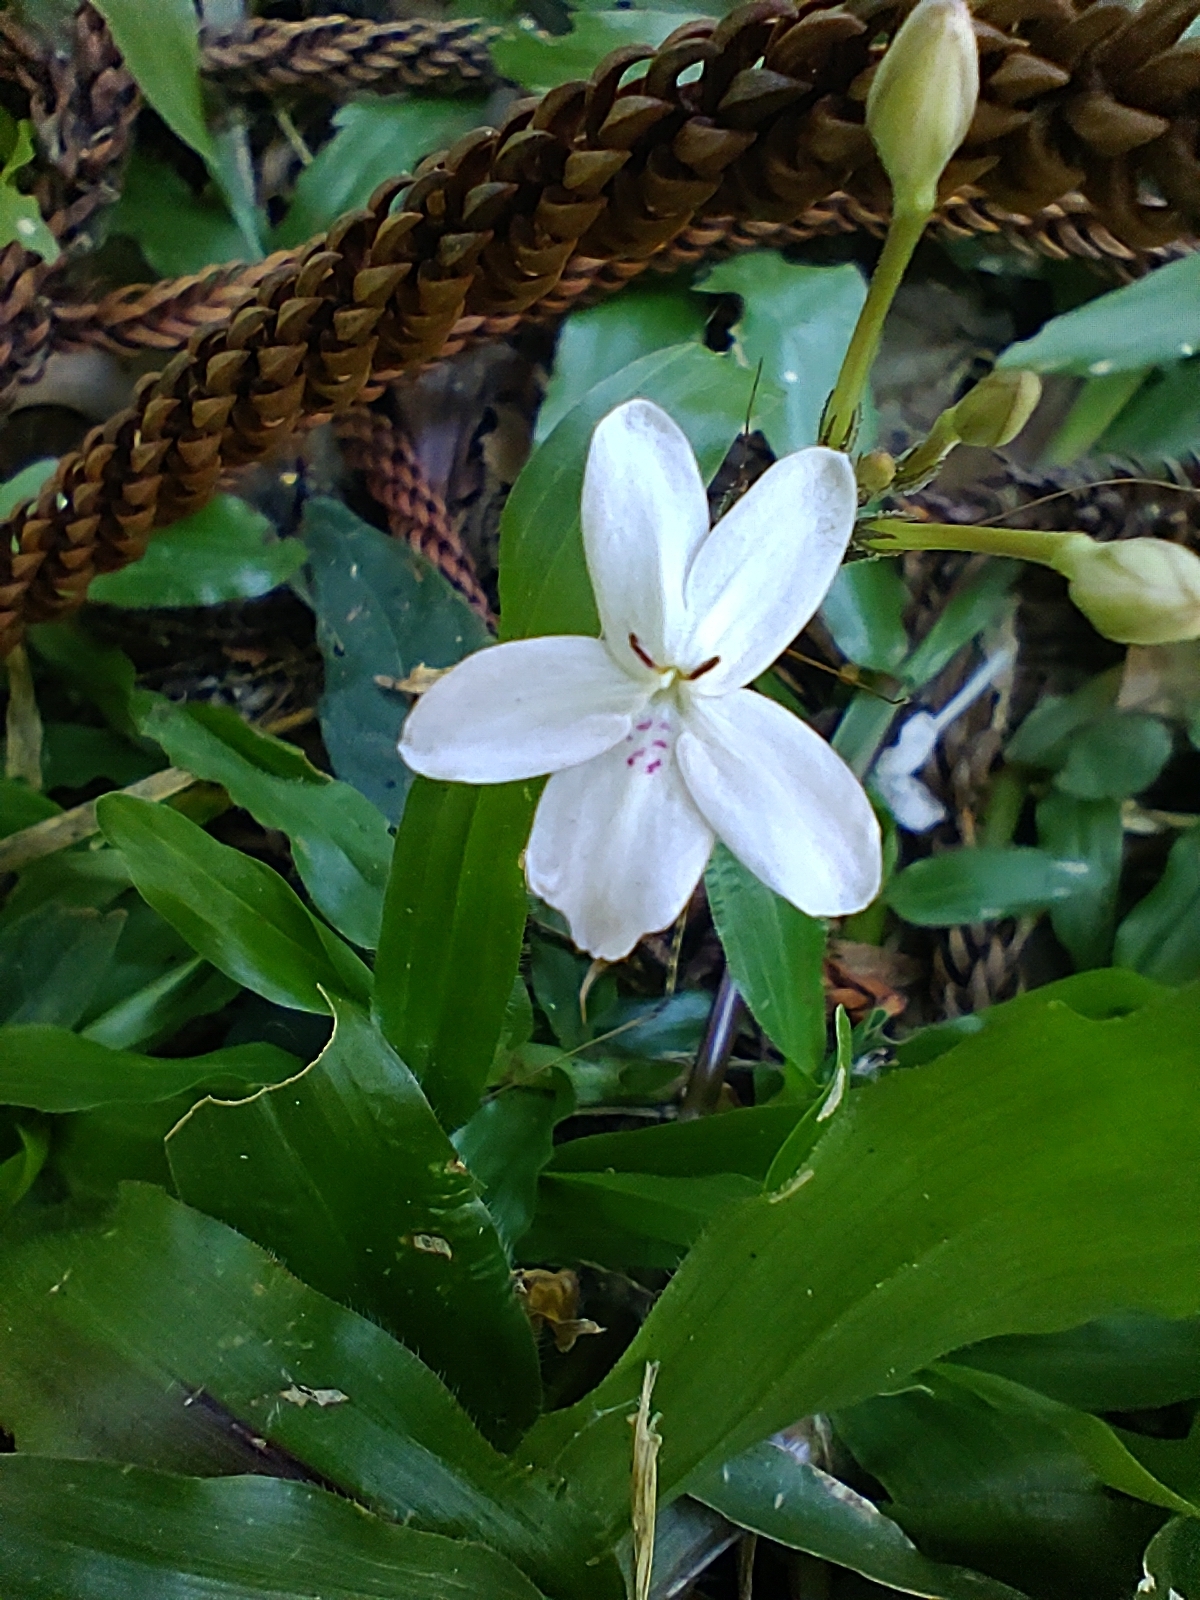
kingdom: Plantae
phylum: Tracheophyta
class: Magnoliopsida
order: Lamiales
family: Acanthaceae
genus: Pseuderanthemum
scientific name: Pseuderanthemum variabile
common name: Night and afternoon
